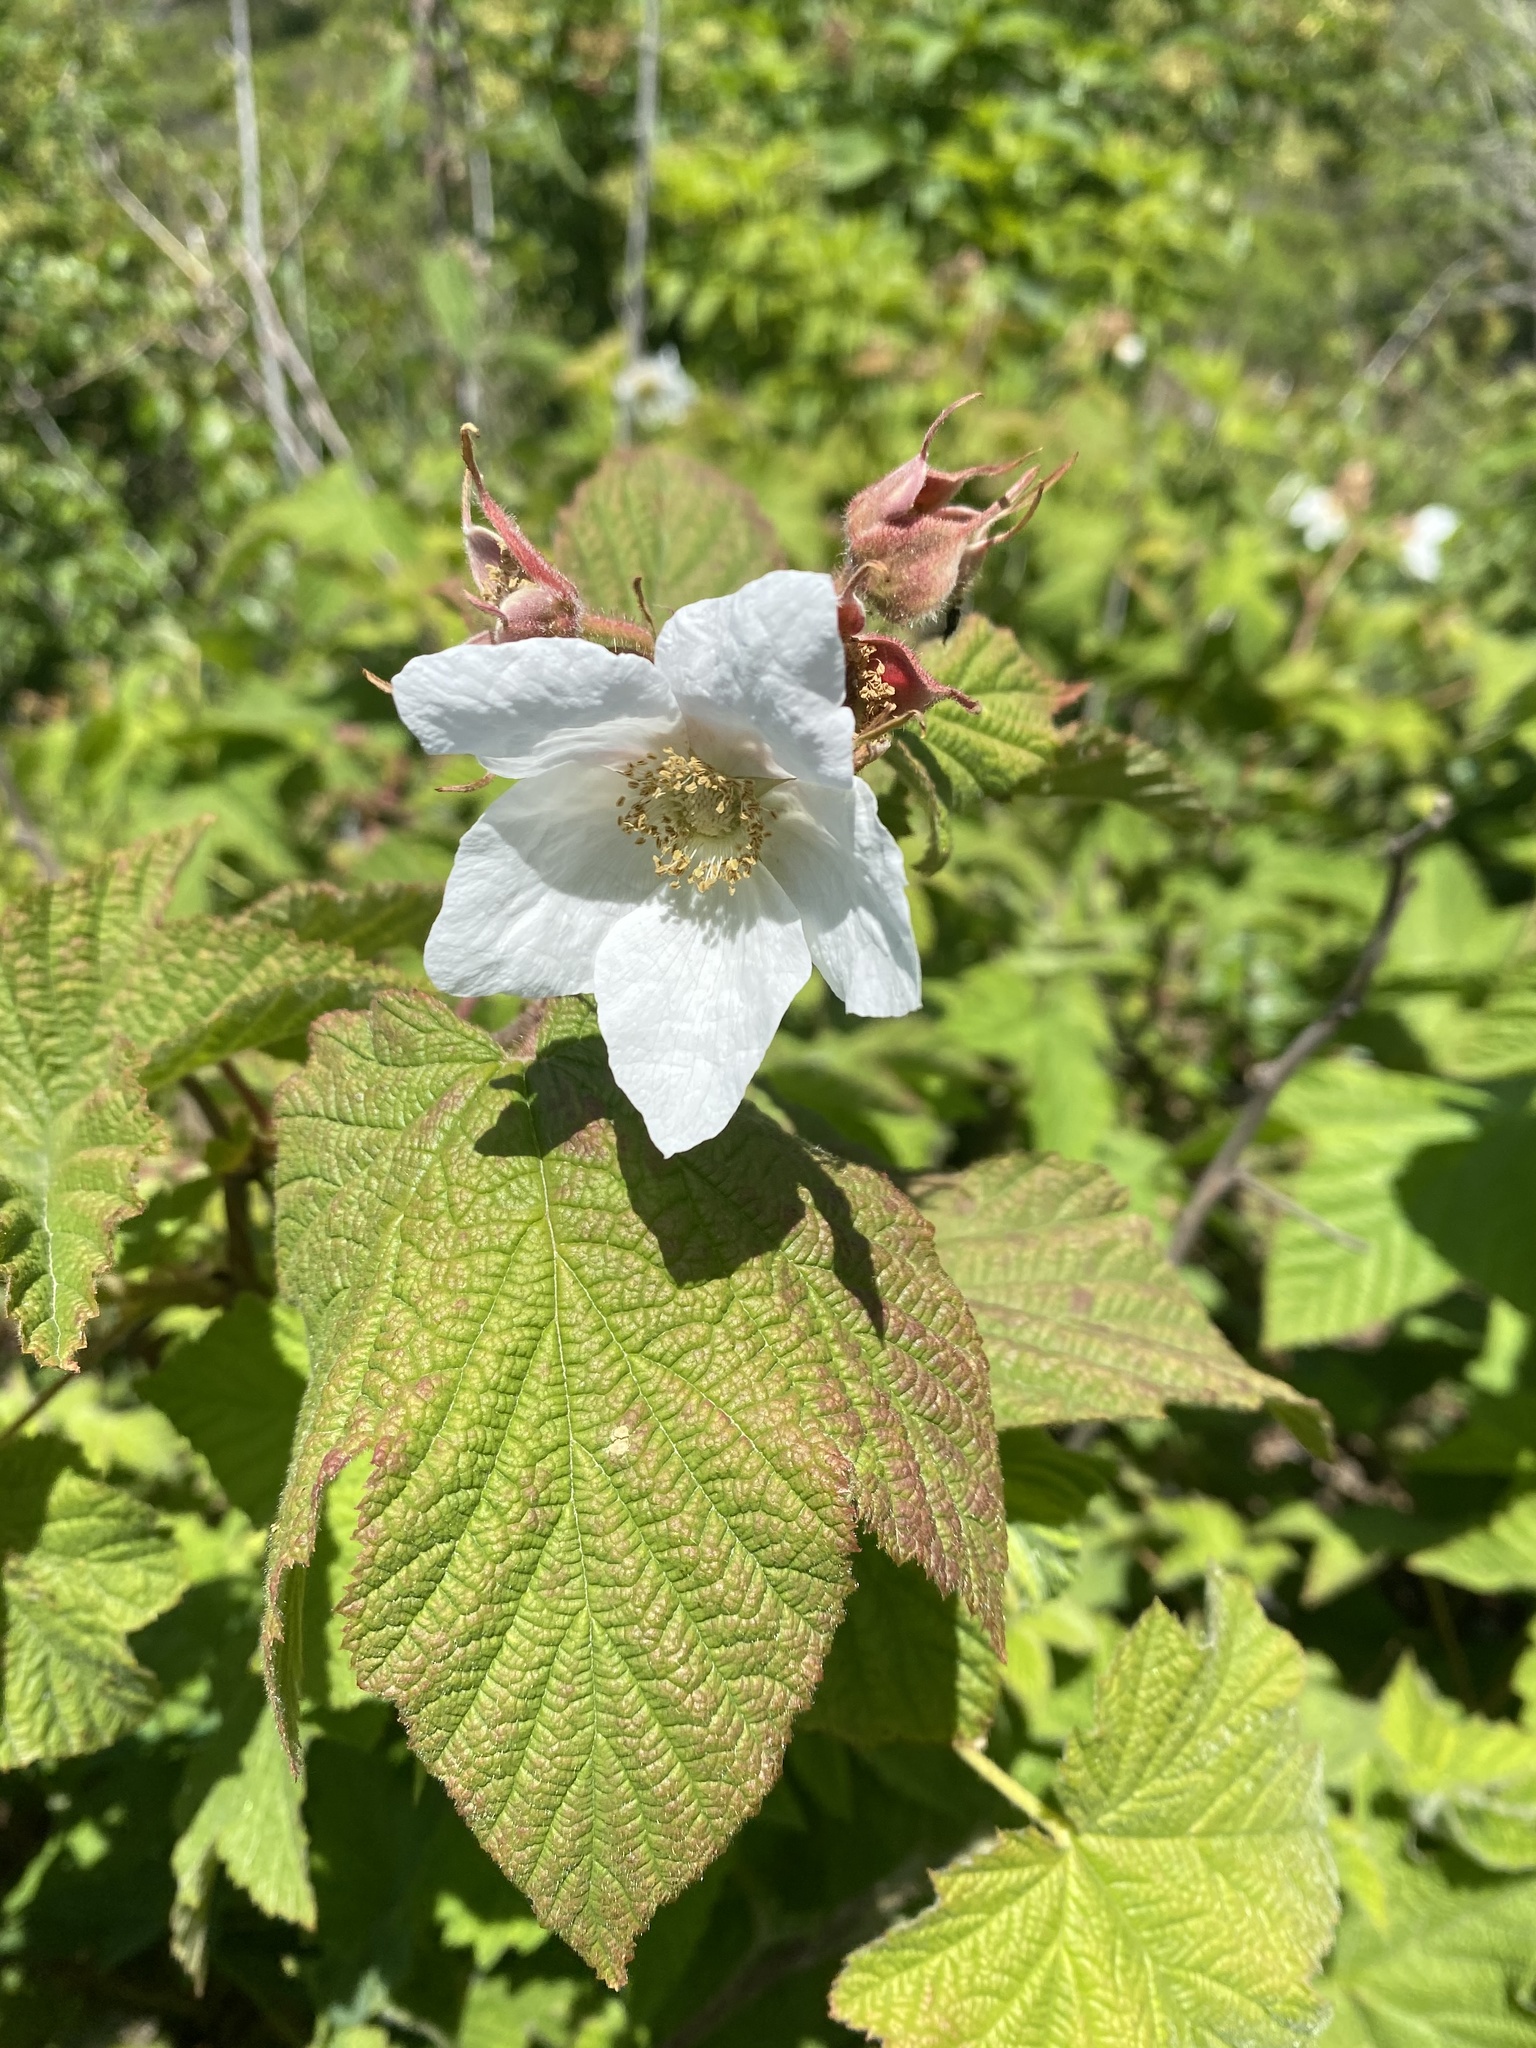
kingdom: Plantae
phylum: Tracheophyta
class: Magnoliopsida
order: Rosales
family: Rosaceae
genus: Rubus
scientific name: Rubus parviflorus
